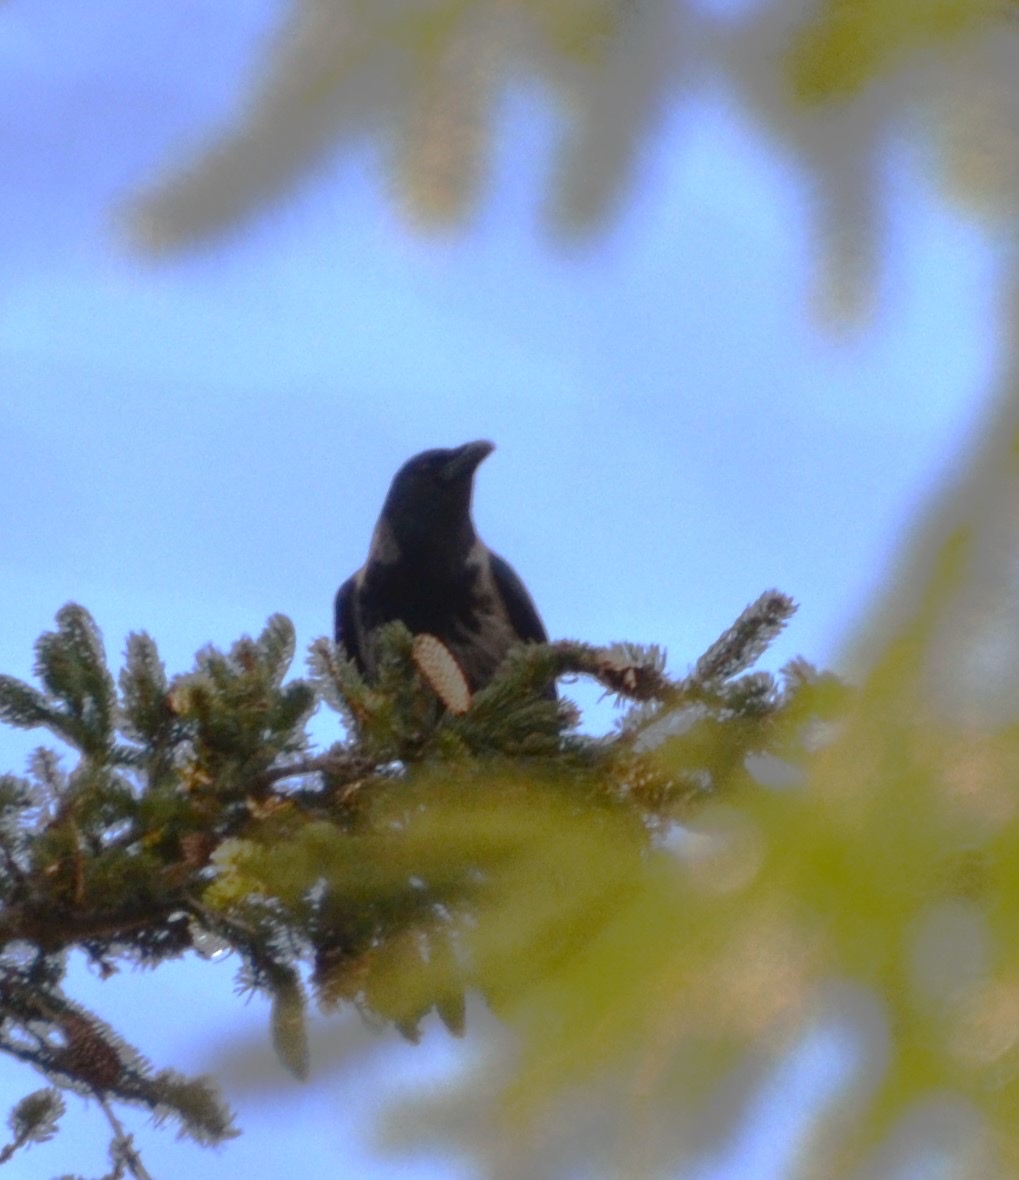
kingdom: Animalia
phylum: Chordata
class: Aves
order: Passeriformes
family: Corvidae
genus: Corvus
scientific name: Corvus cornix
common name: Hooded crow
